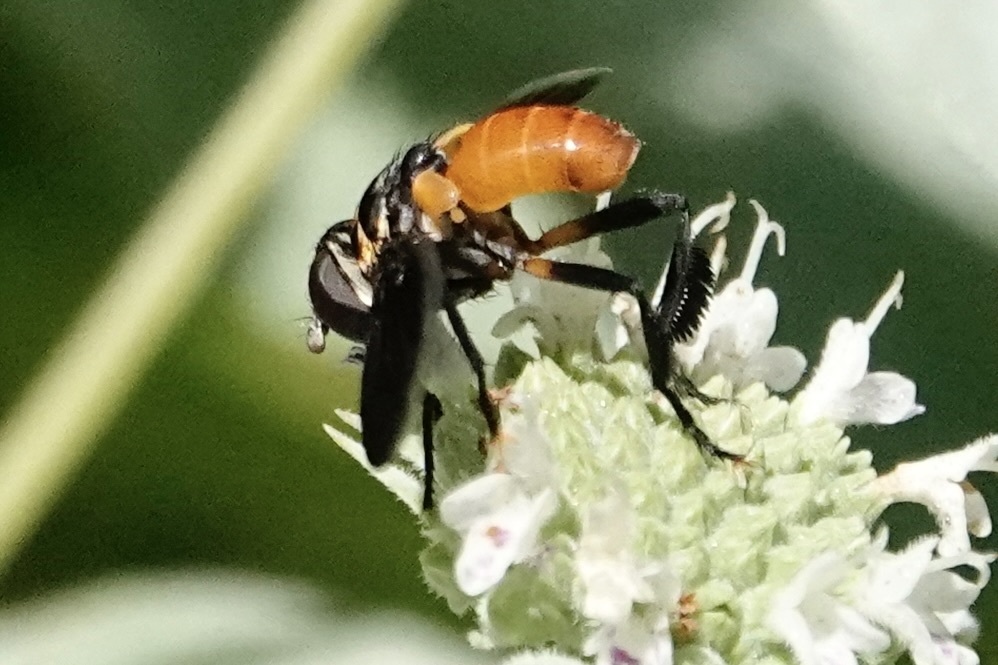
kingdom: Animalia
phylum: Arthropoda
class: Insecta
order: Diptera
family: Tachinidae
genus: Trichopoda
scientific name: Trichopoda pennipes
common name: Tachinid fly
